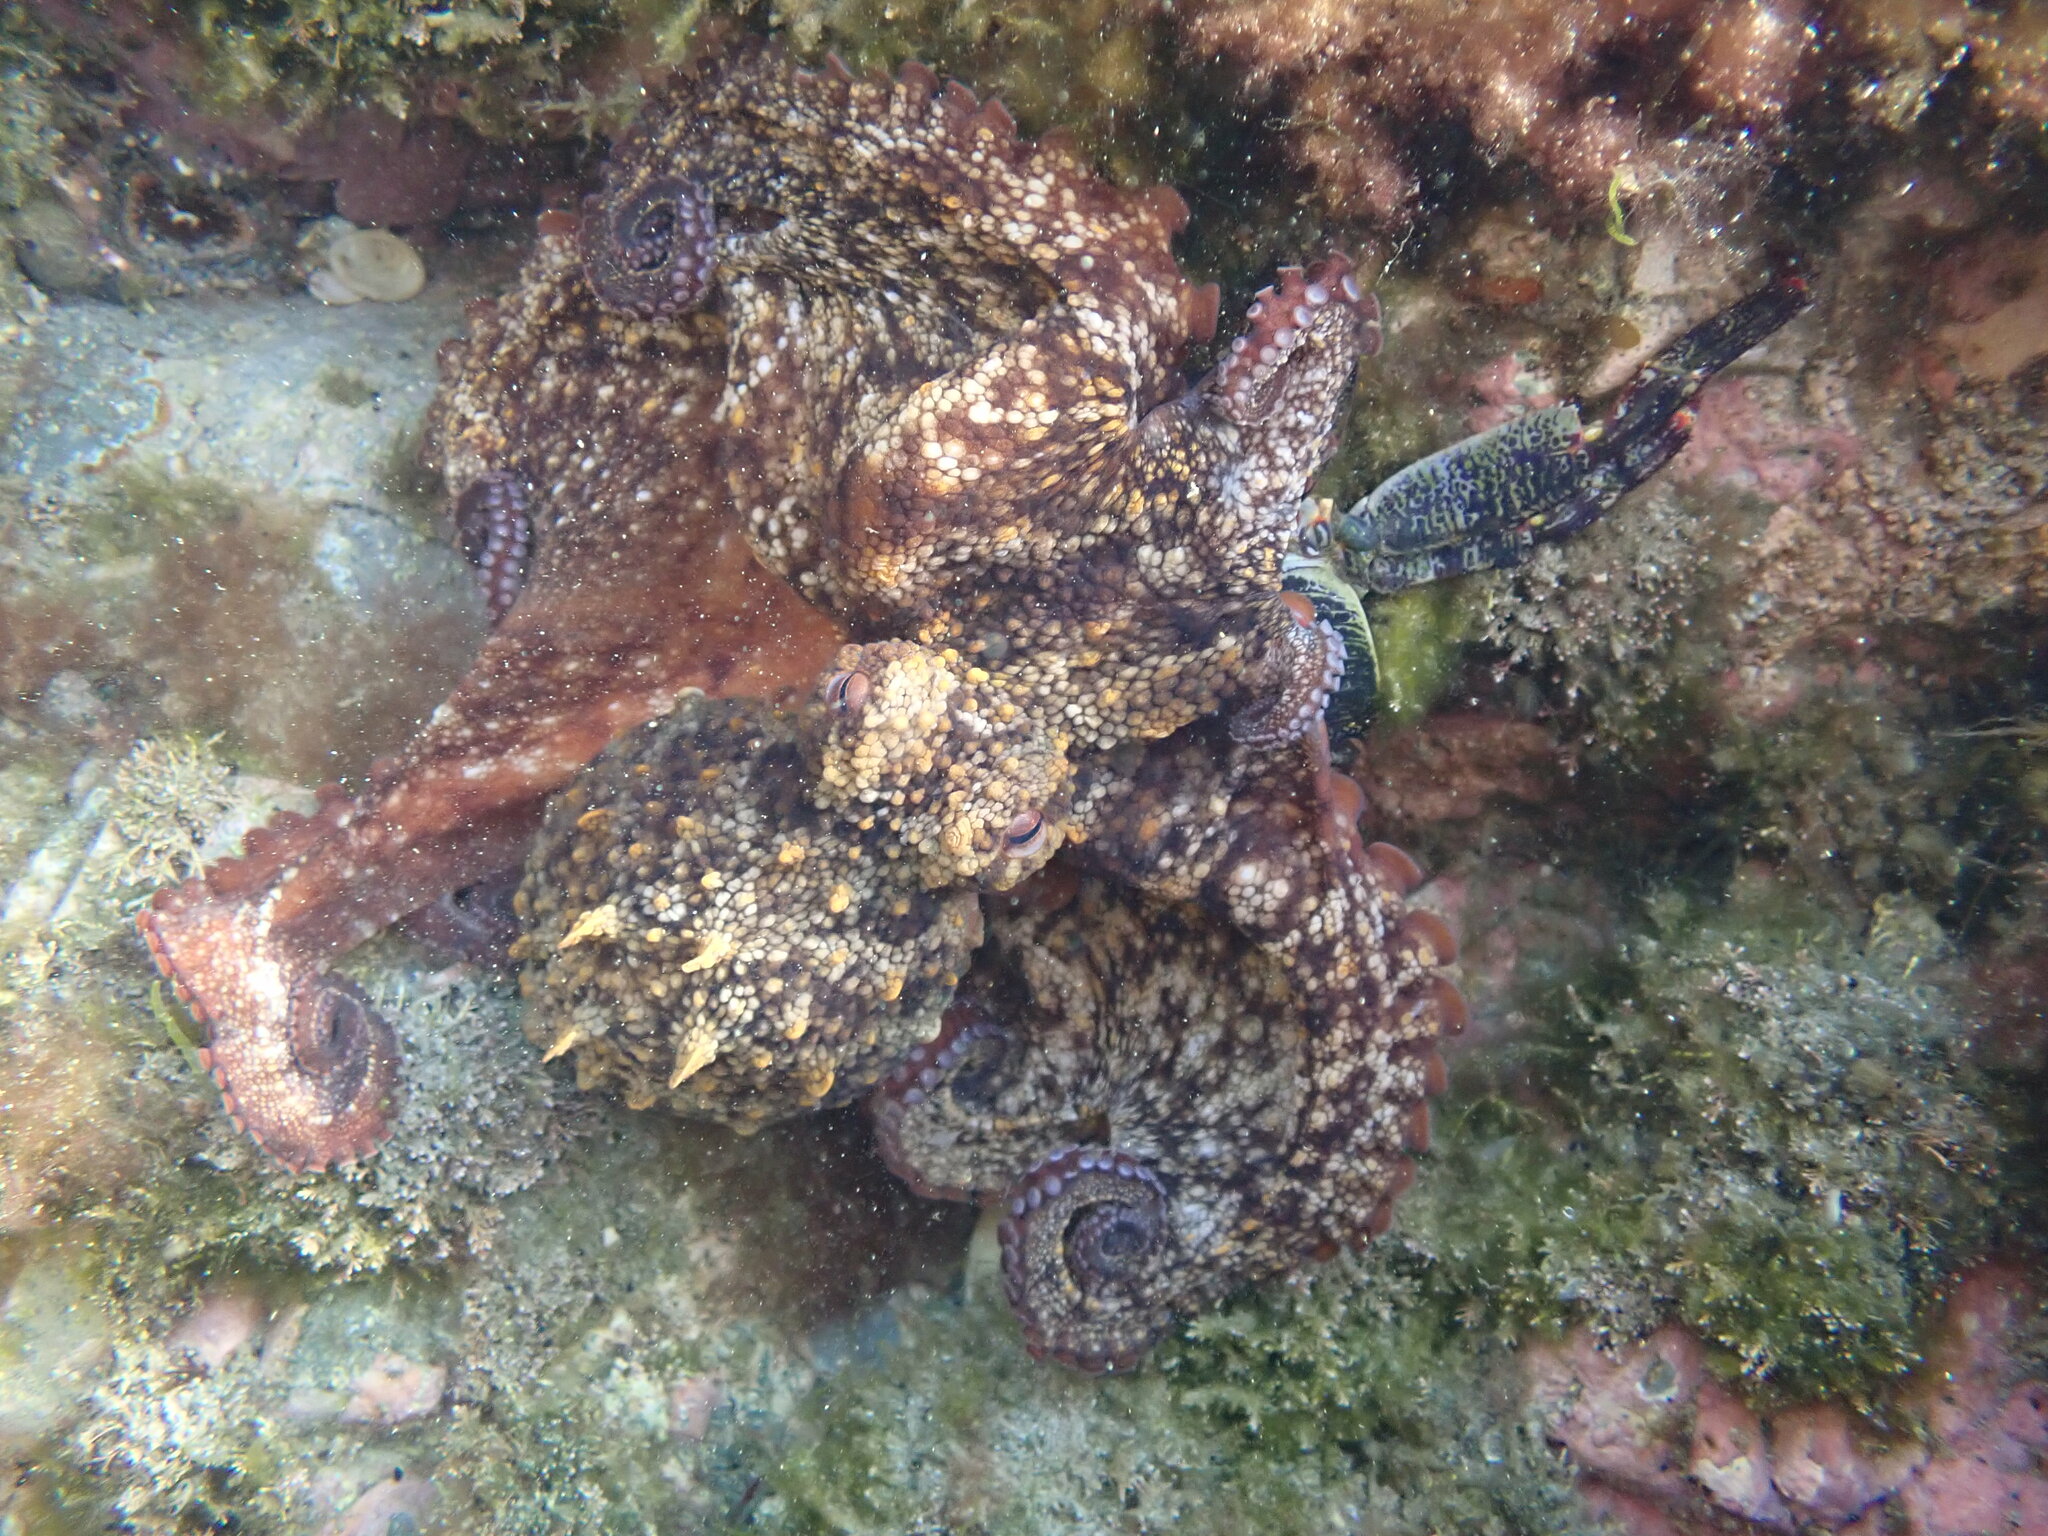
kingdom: Animalia
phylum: Mollusca
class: Cephalopoda
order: Octopoda
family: Octopodidae
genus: Octopus
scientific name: Octopus tetricus
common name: Sydney octopus
